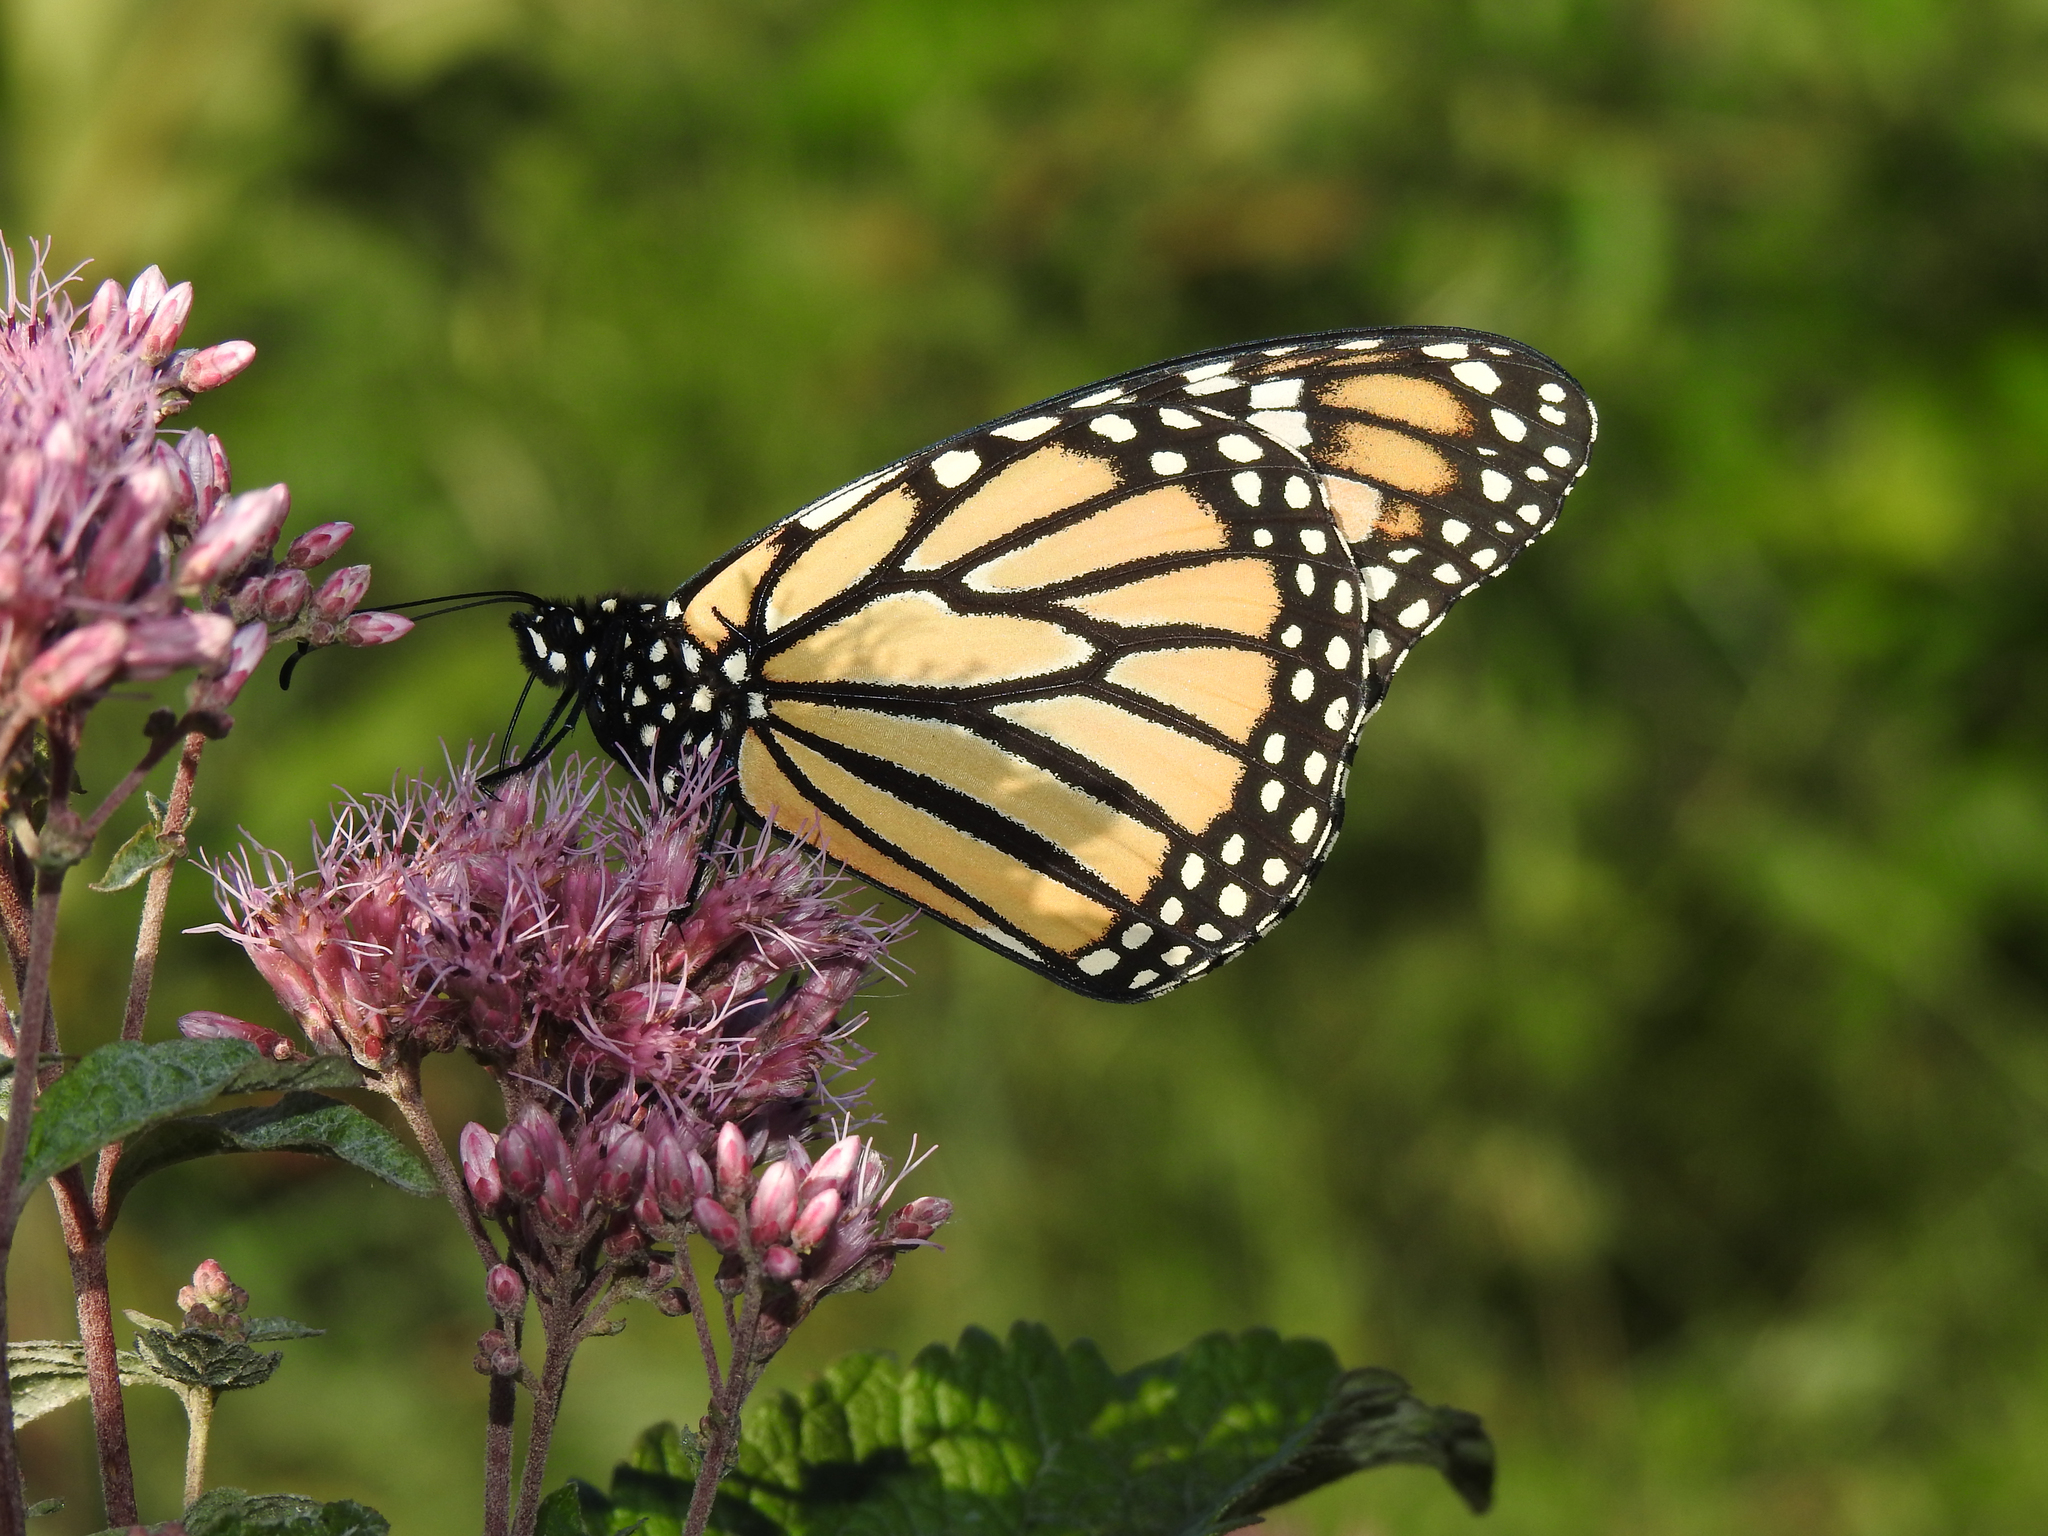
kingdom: Animalia
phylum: Arthropoda
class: Insecta
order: Lepidoptera
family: Nymphalidae
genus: Danaus
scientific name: Danaus plexippus
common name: Monarch
